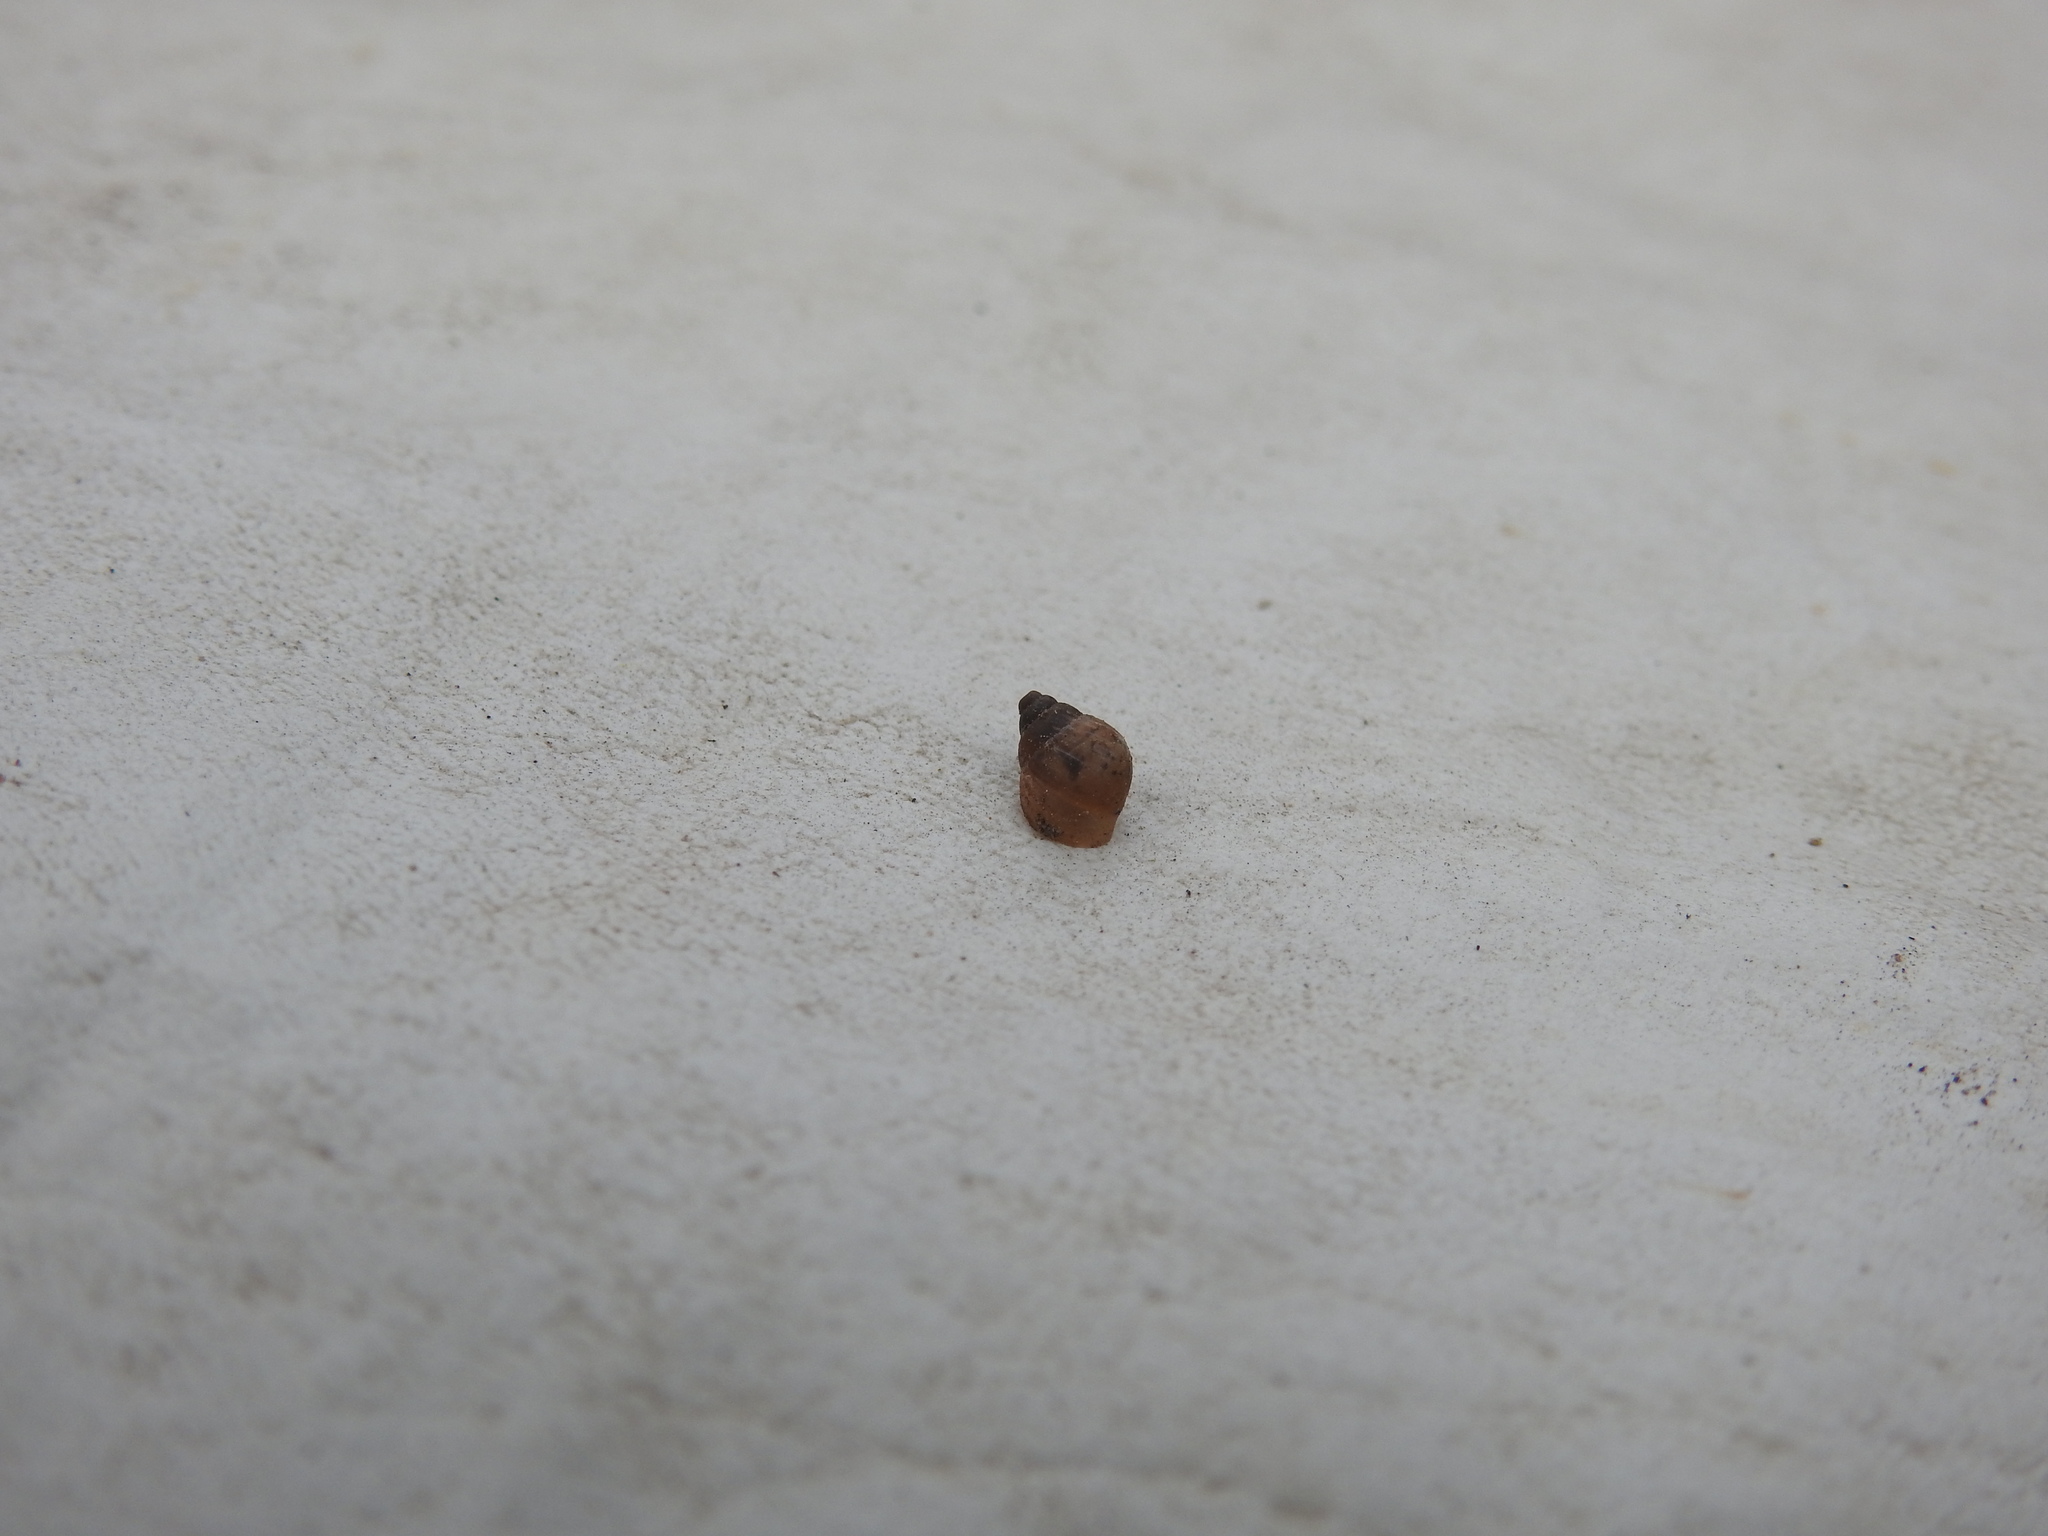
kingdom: Animalia
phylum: Mollusca
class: Gastropoda
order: Stylommatophora
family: Bulimulidae
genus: Bulimulus
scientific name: Bulimulus bonariensis
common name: Snail
